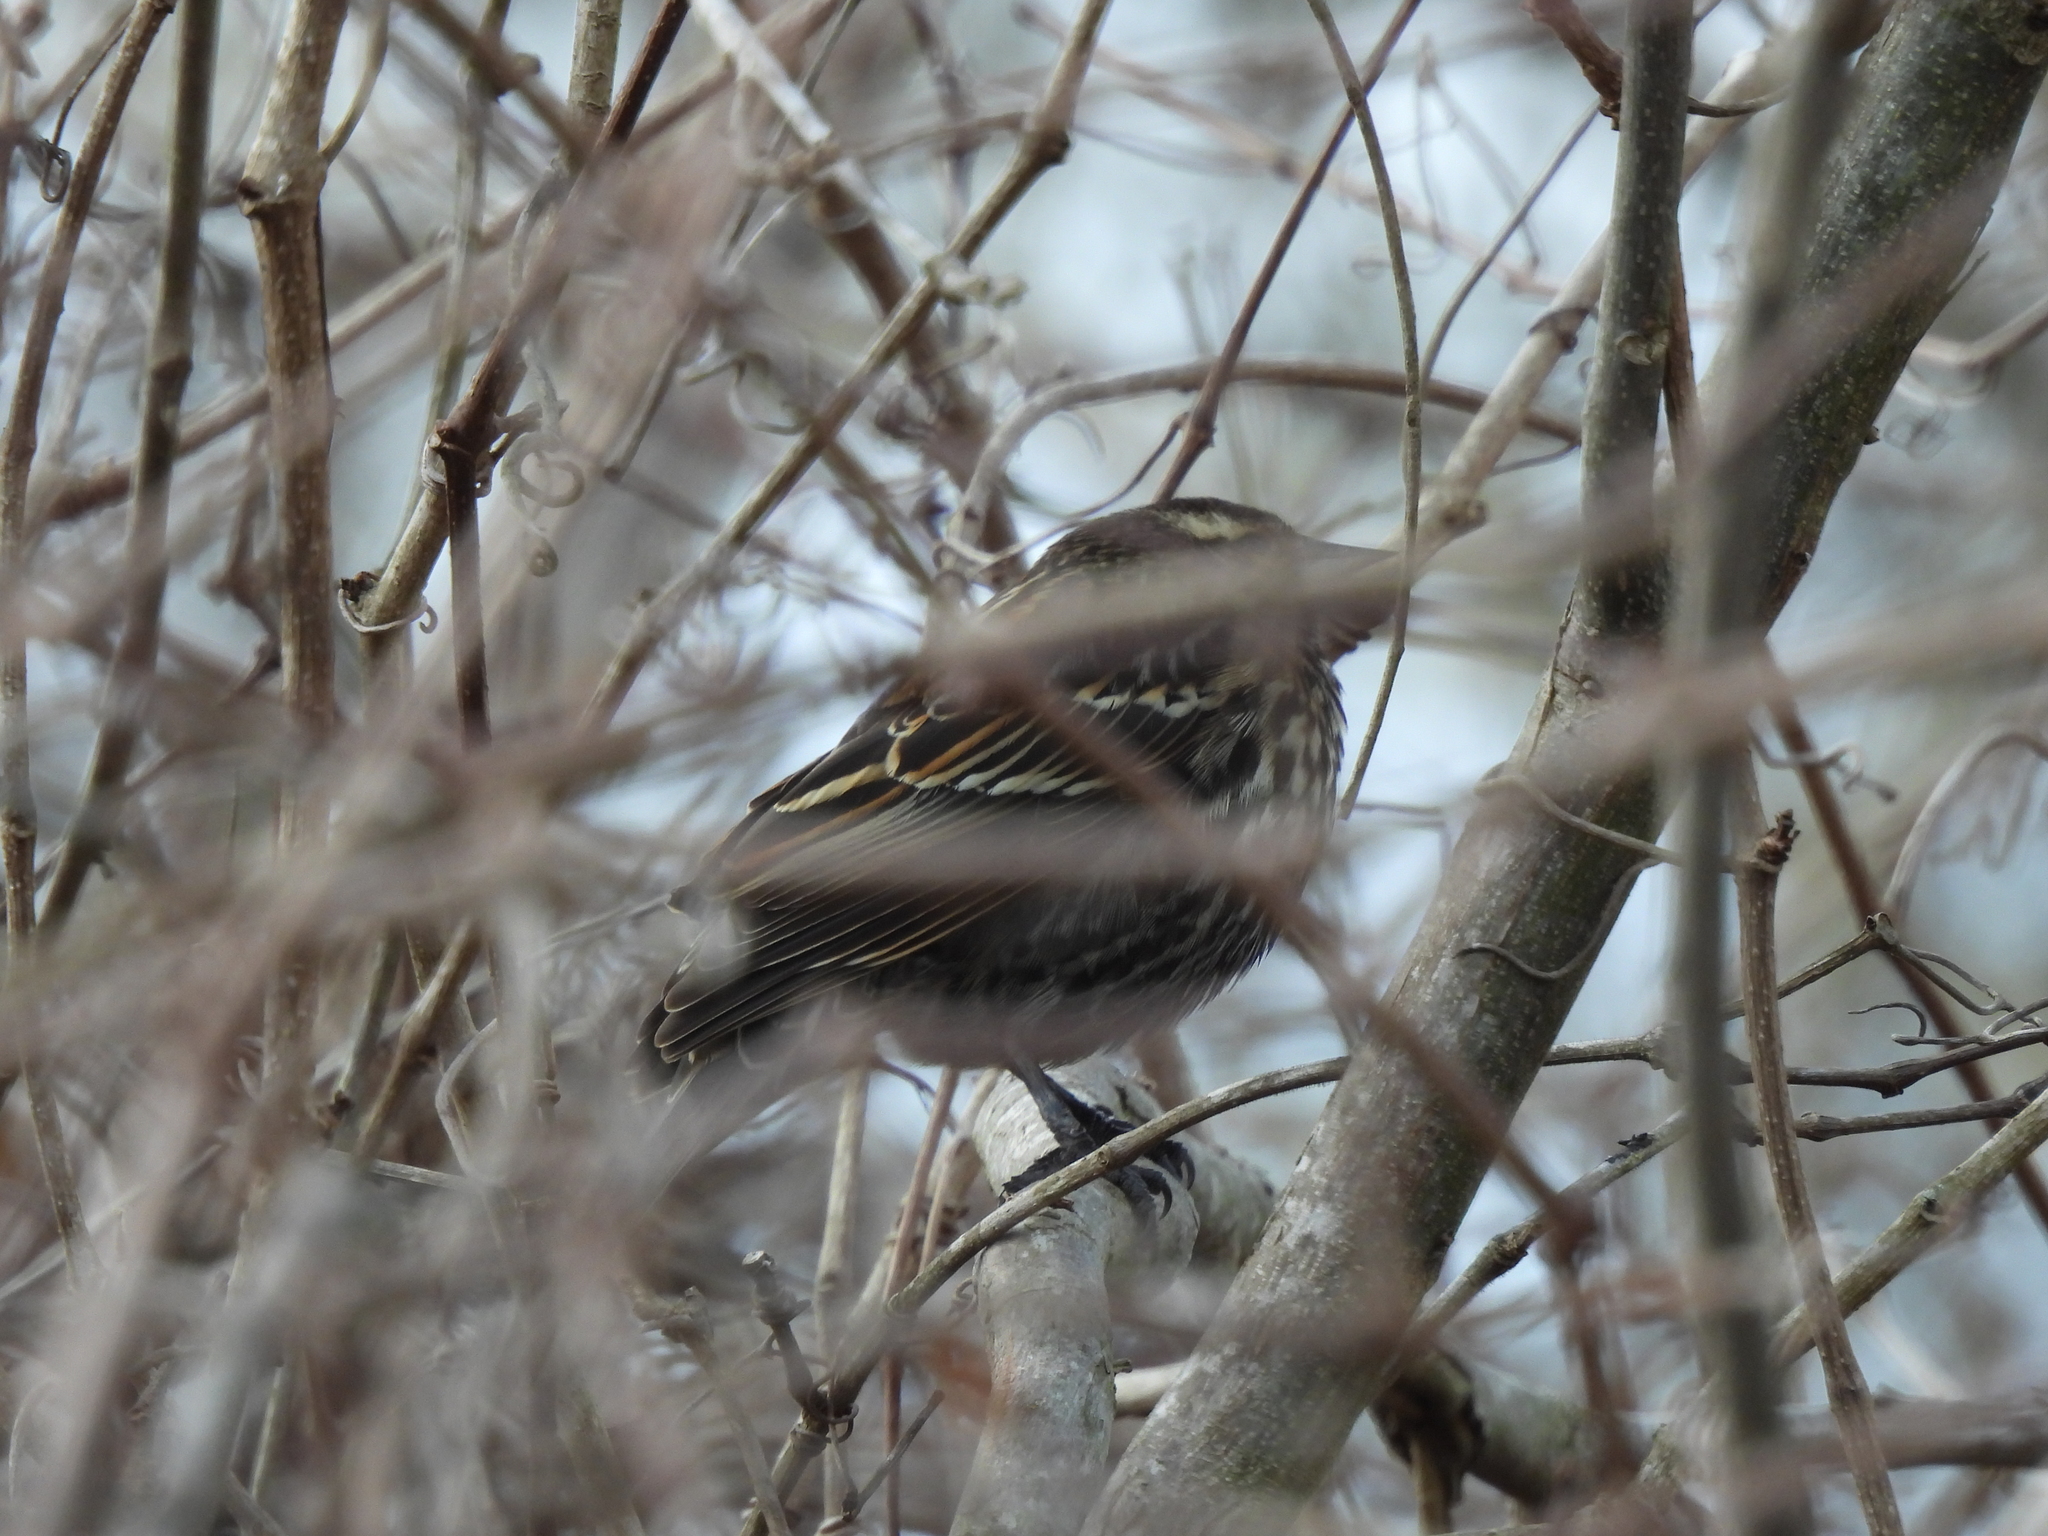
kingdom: Animalia
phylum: Chordata
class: Aves
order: Passeriformes
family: Icteridae
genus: Agelaius
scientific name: Agelaius phoeniceus
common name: Red-winged blackbird
